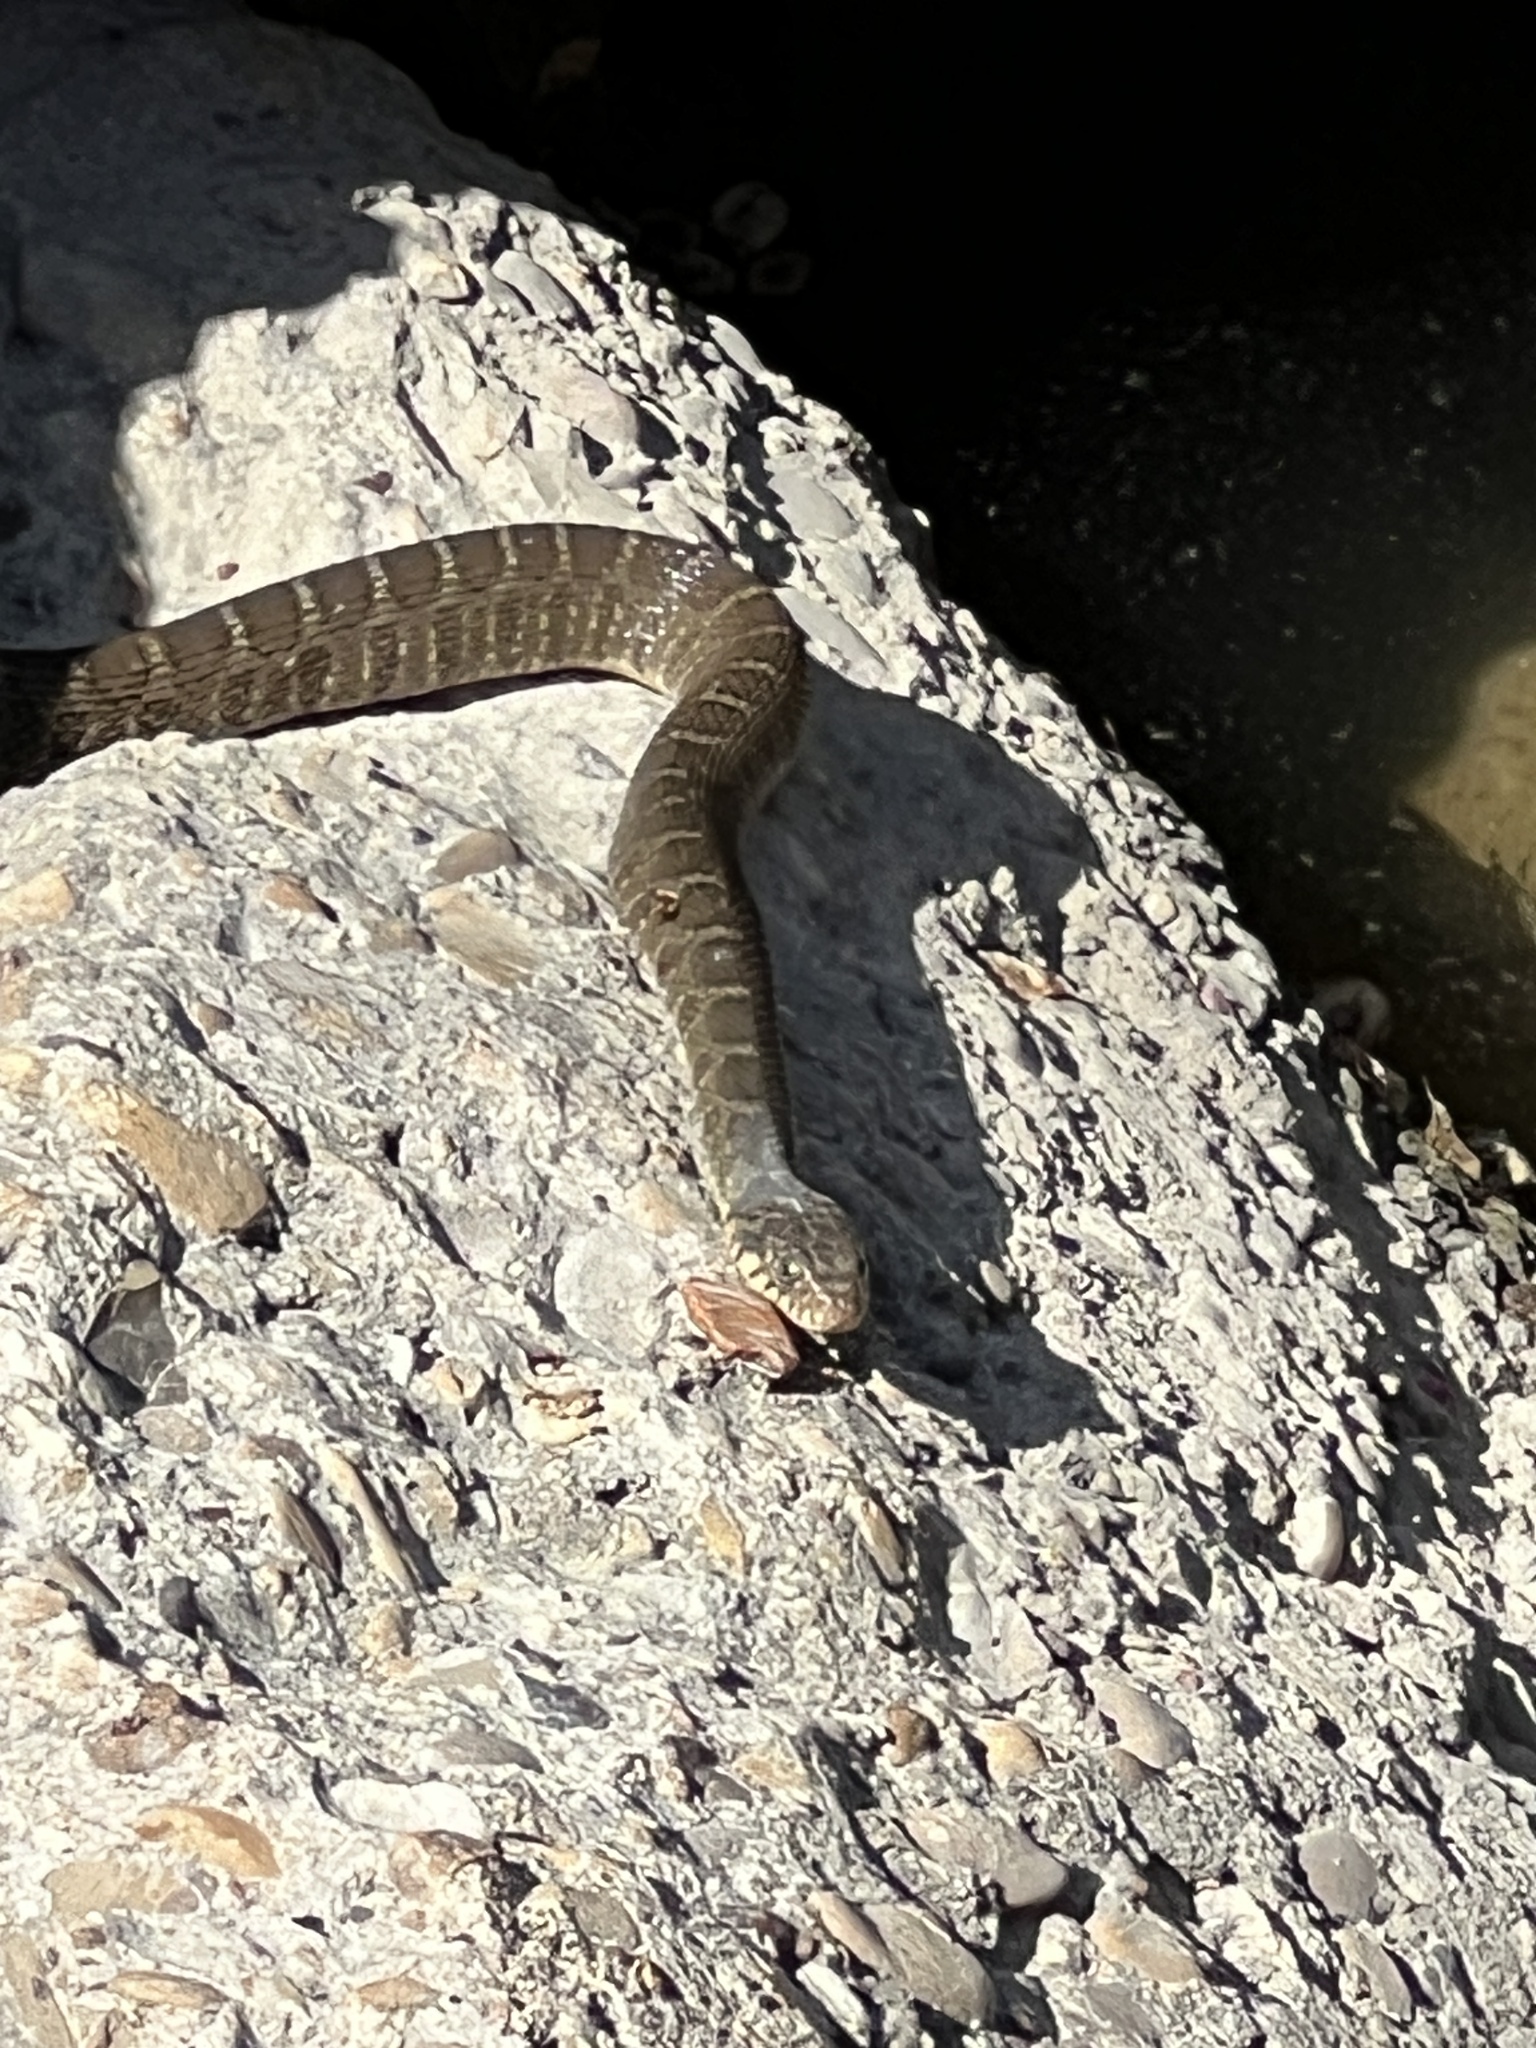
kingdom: Animalia
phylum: Chordata
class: Squamata
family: Colubridae
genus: Nerodia
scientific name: Nerodia erythrogaster
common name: Plainbelly water snake
